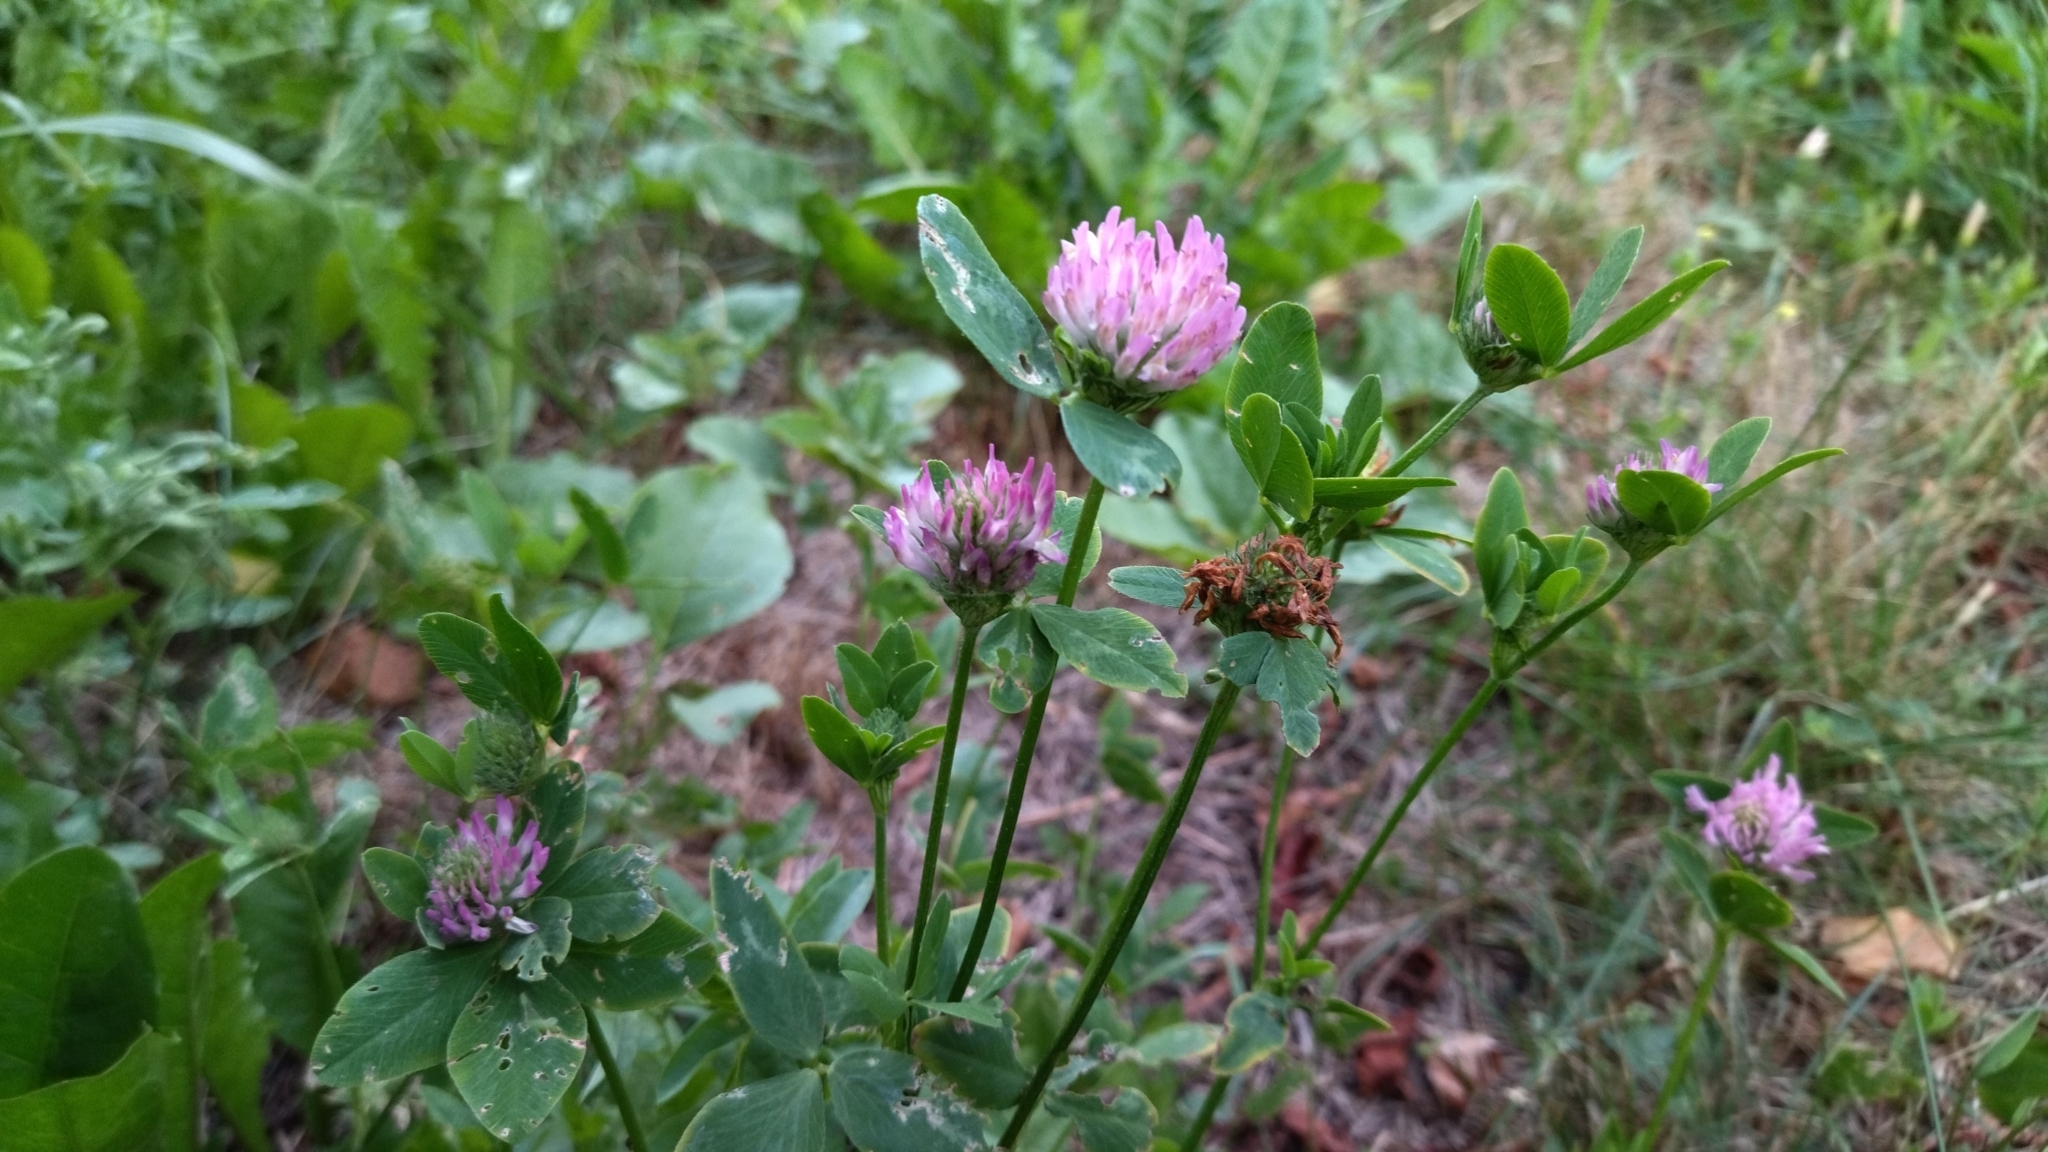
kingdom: Plantae
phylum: Tracheophyta
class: Magnoliopsida
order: Fabales
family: Fabaceae
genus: Trifolium
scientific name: Trifolium pratense
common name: Red clover
